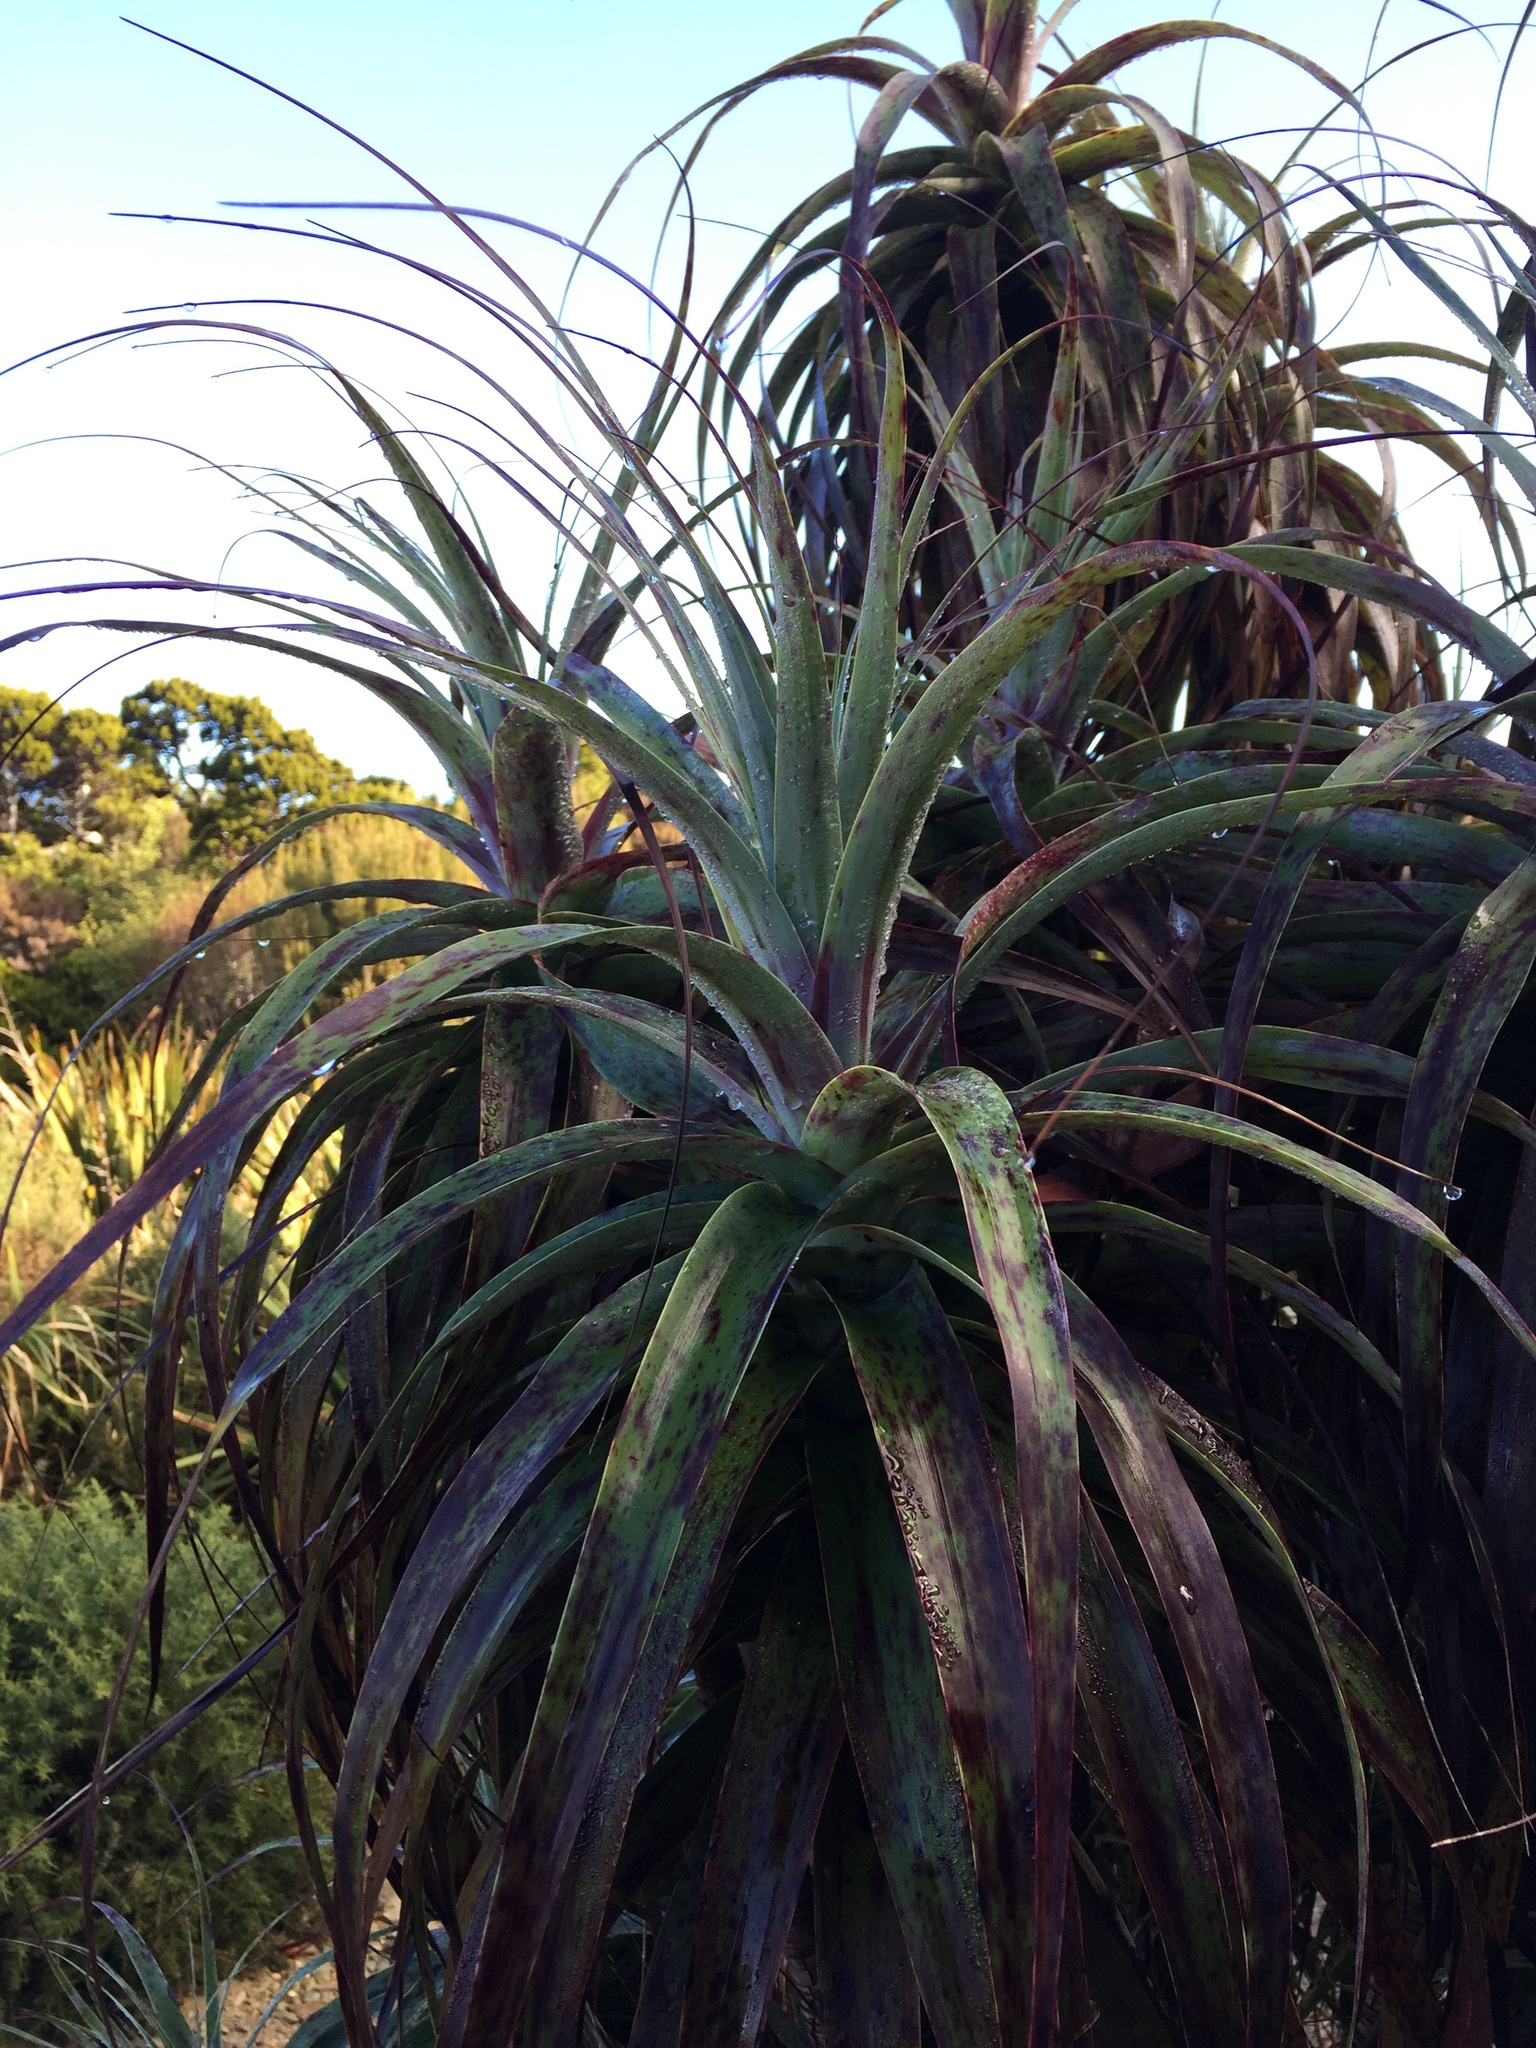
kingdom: Plantae
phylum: Tracheophyta
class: Magnoliopsida
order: Ericales
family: Ericaceae
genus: Dracophyllum
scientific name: Dracophyllum traversii
